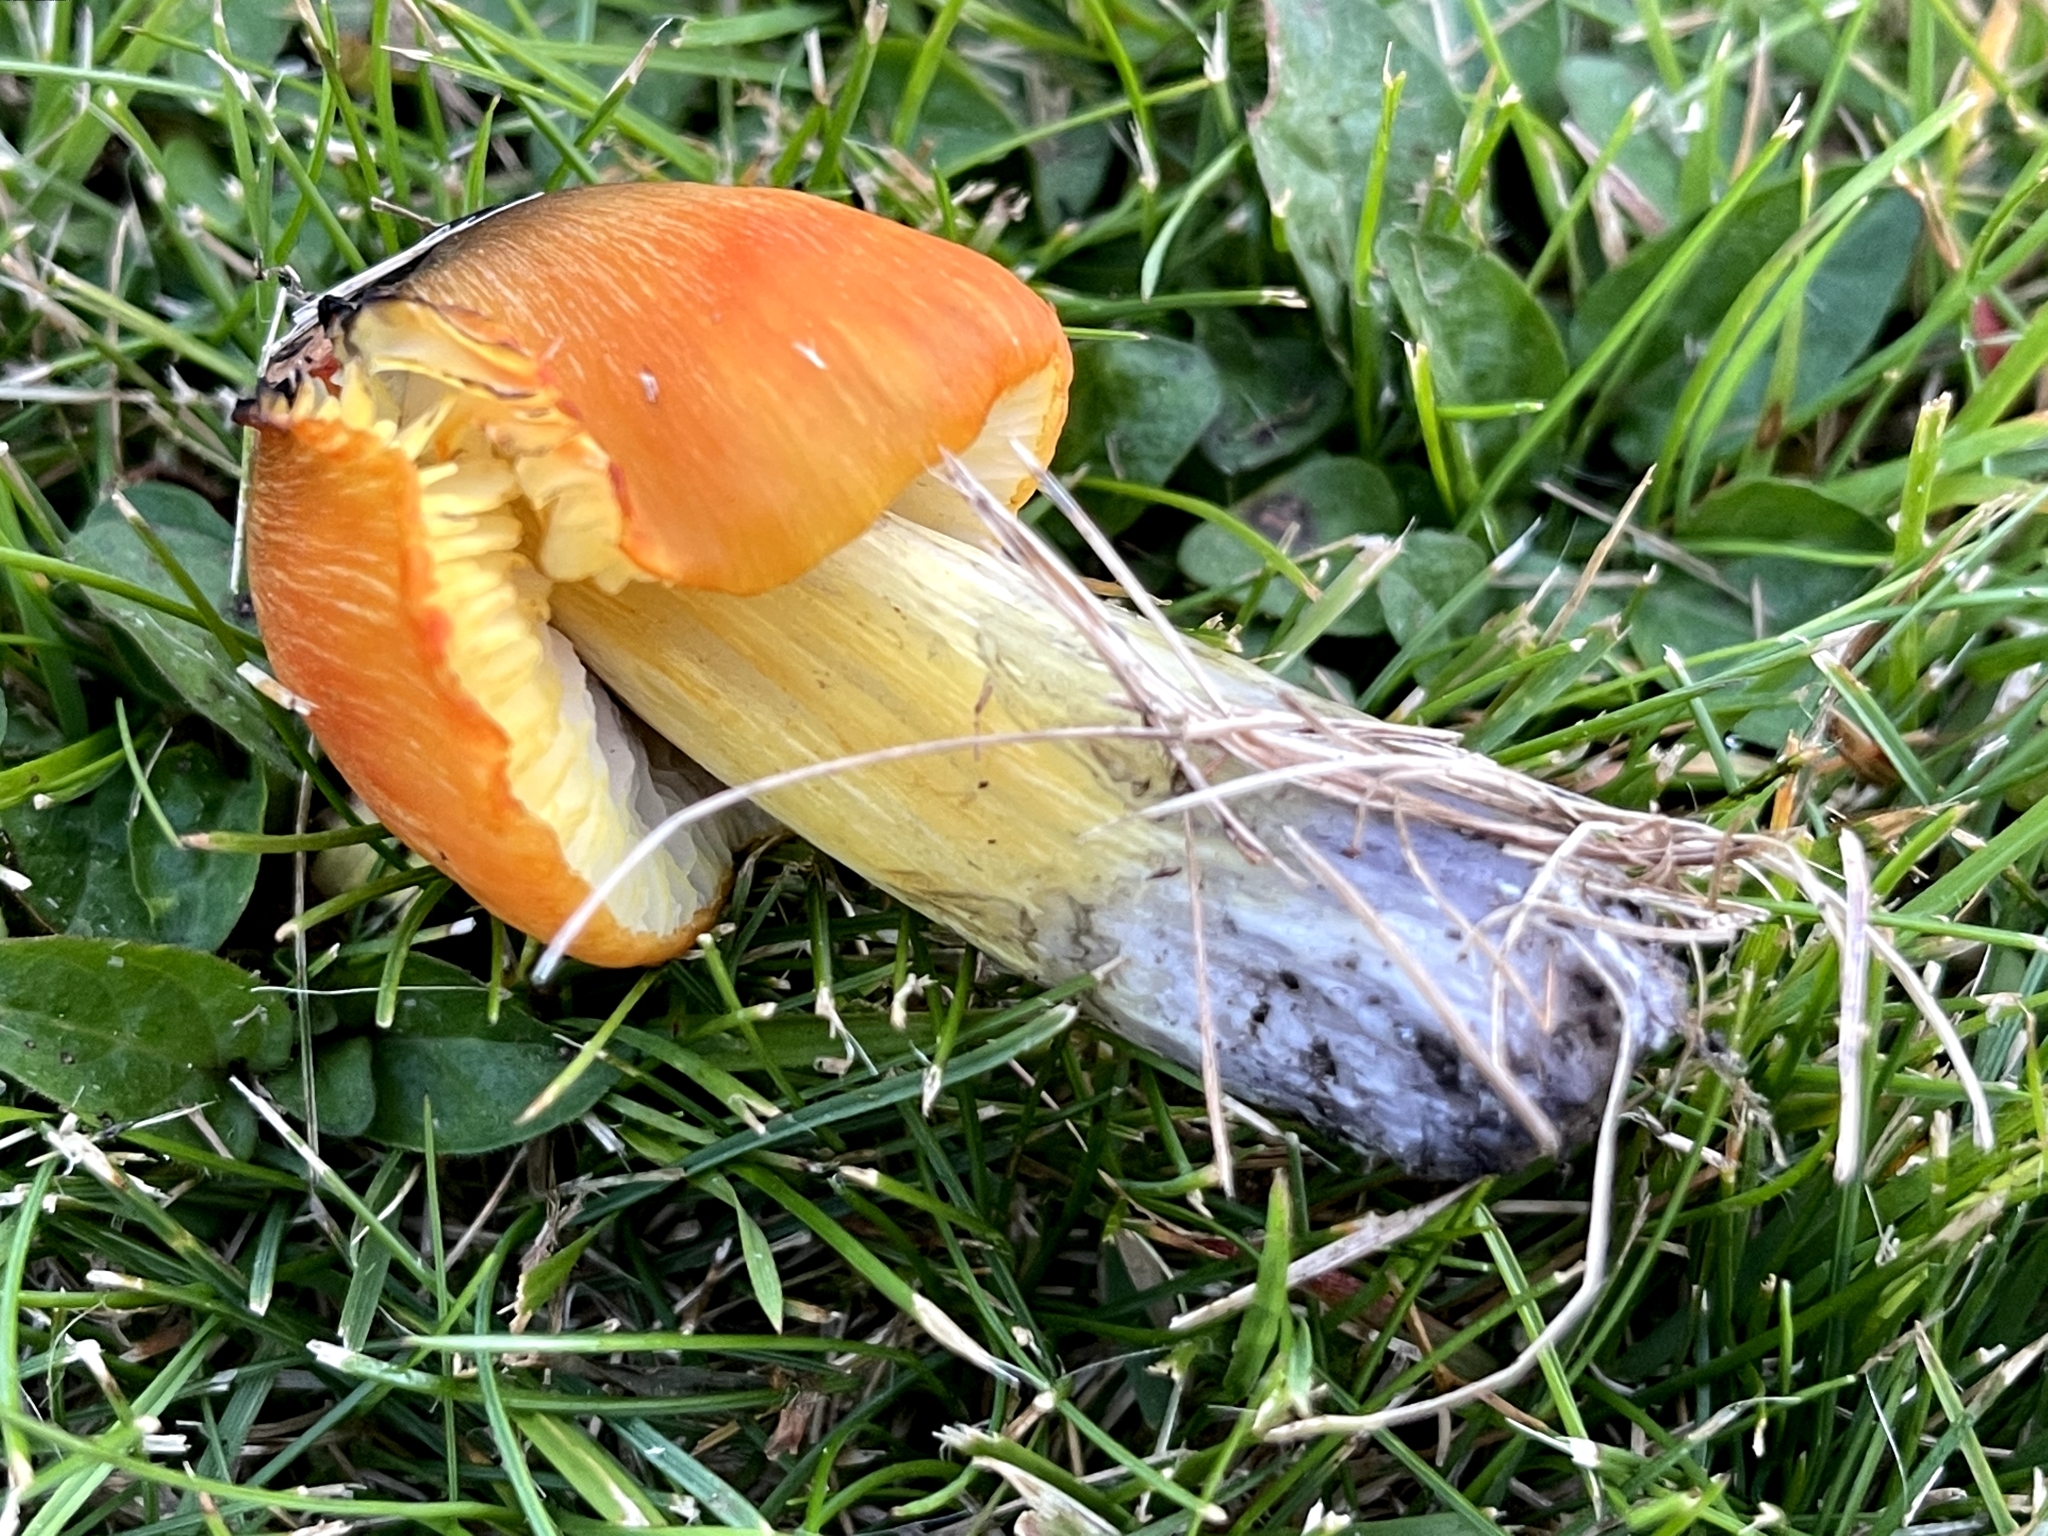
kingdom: Fungi
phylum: Basidiomycota
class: Agaricomycetes
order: Agaricales
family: Hygrophoraceae
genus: Hygrocybe
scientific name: Hygrocybe conica
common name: Blackening wax-cap
